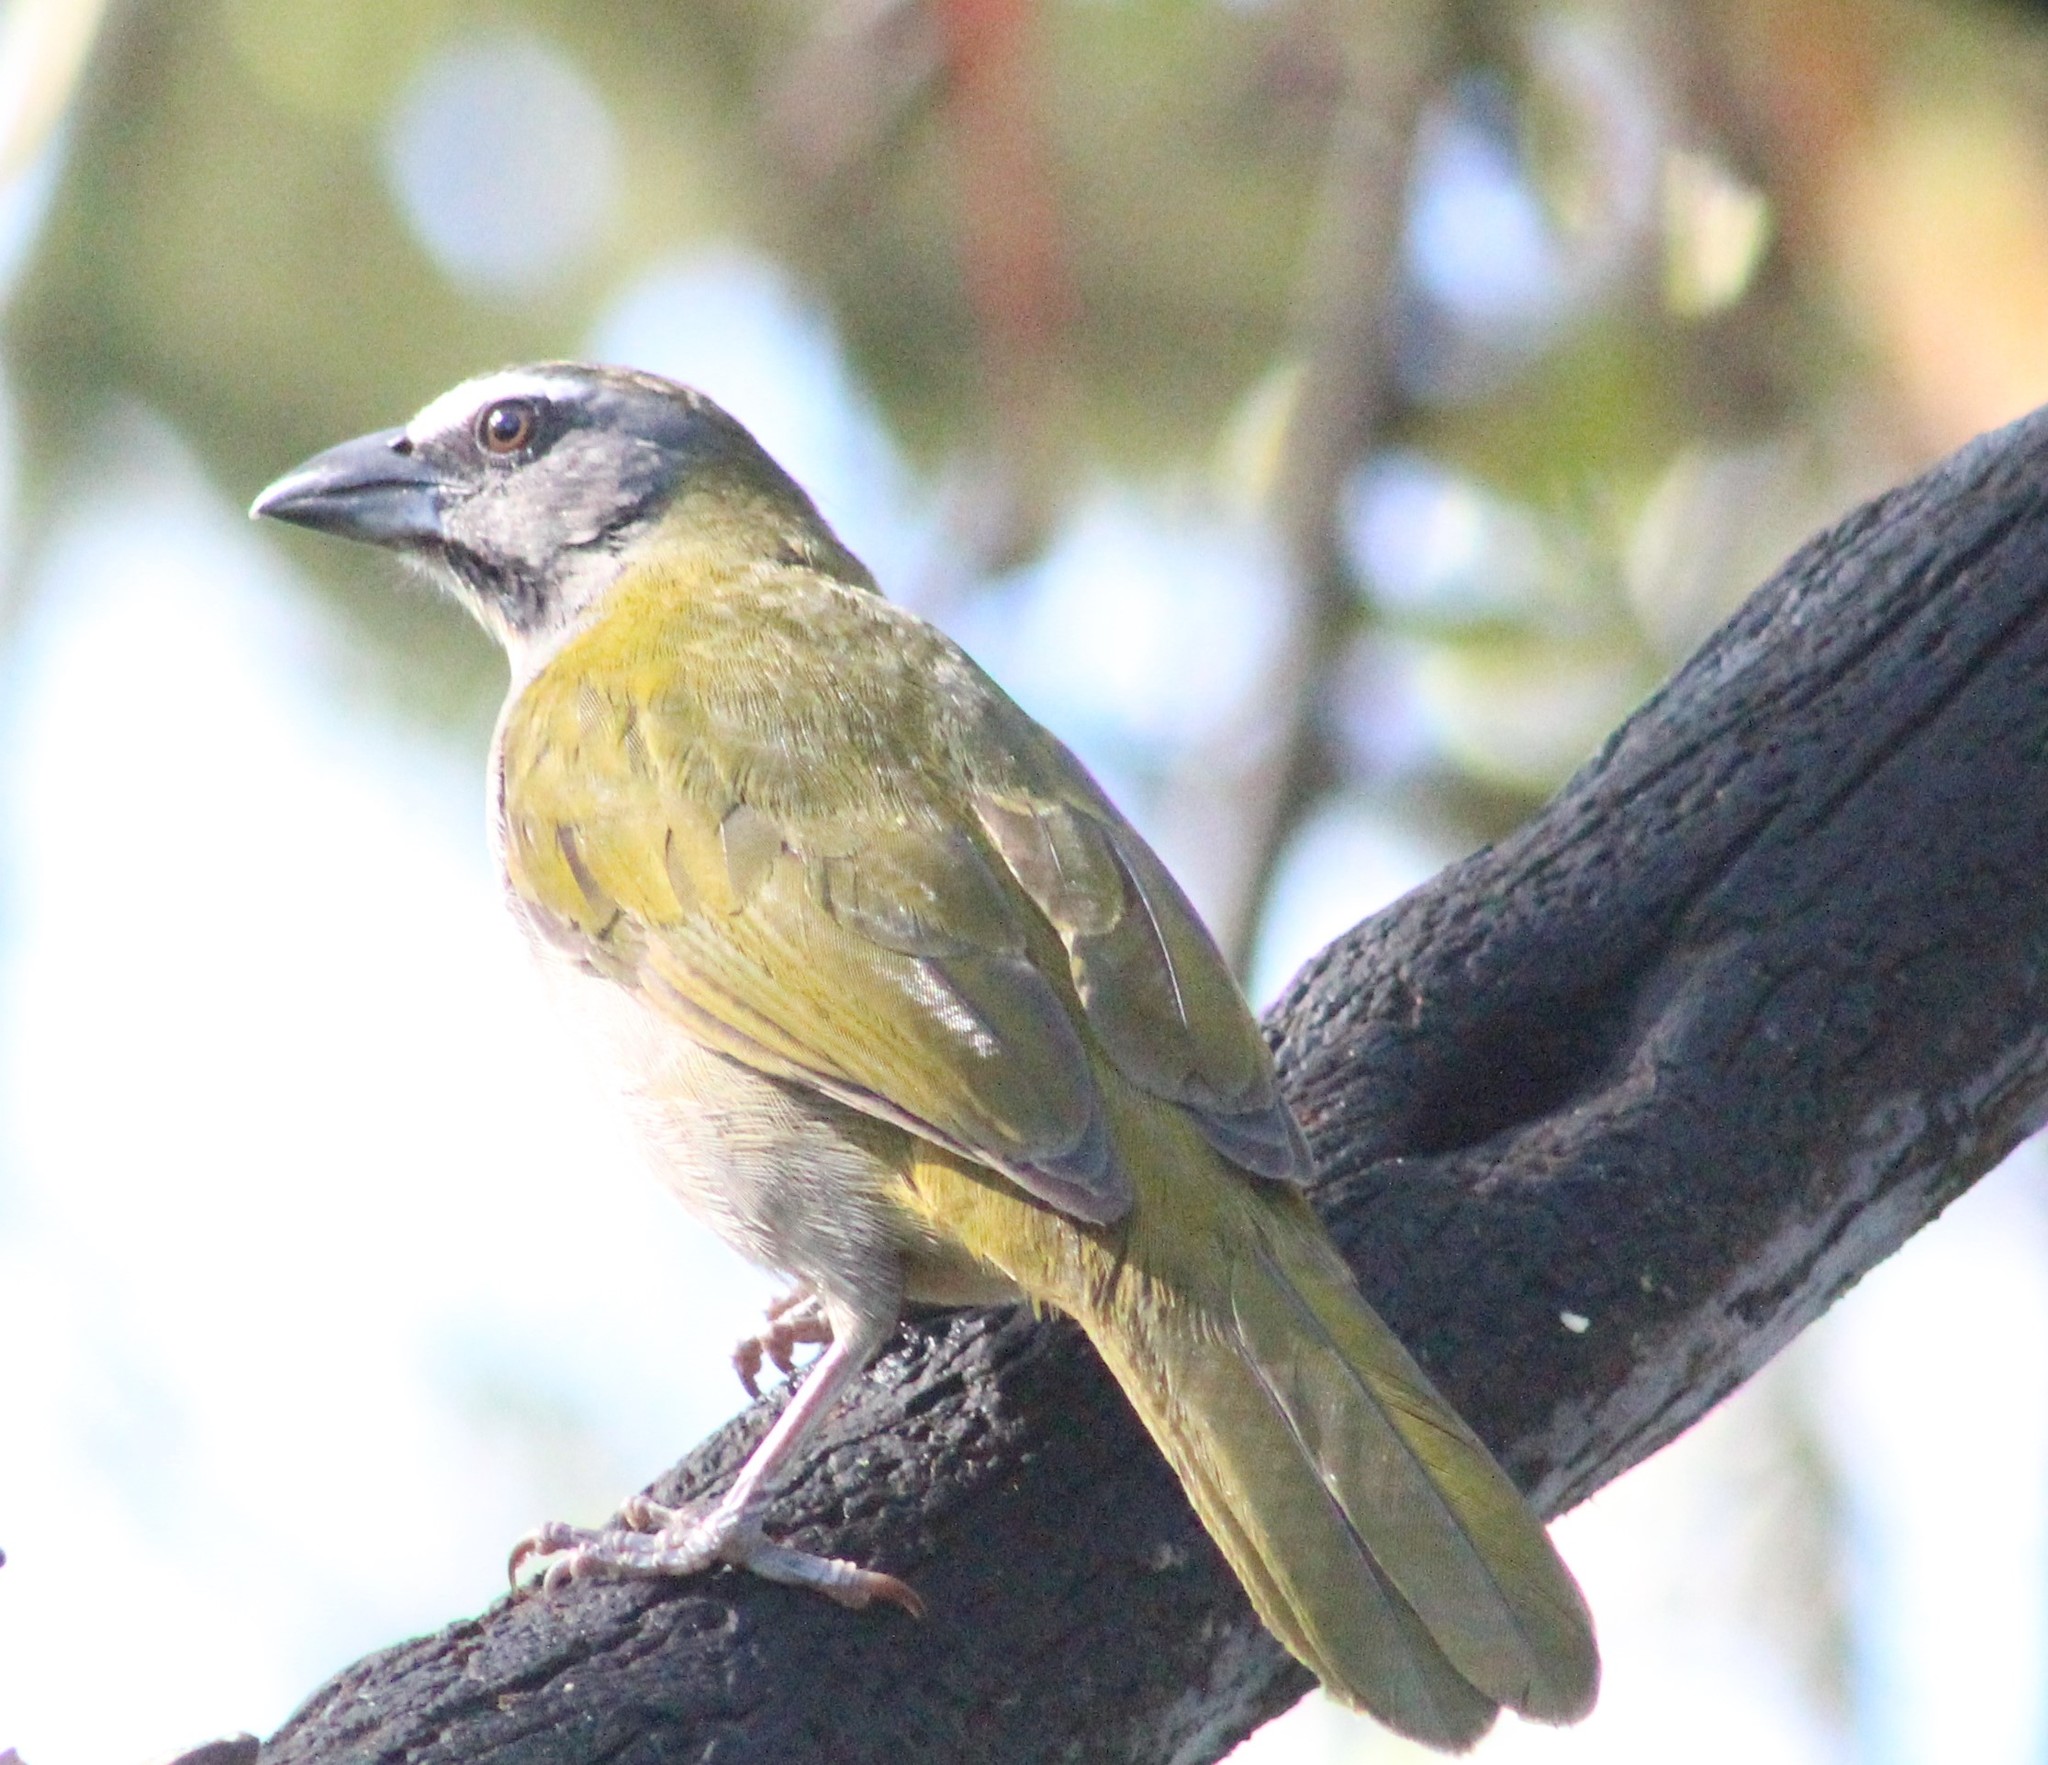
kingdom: Animalia
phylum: Chordata
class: Aves
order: Passeriformes
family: Thraupidae
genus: Saltator
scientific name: Saltator maximus
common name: Buff-throated saltator
